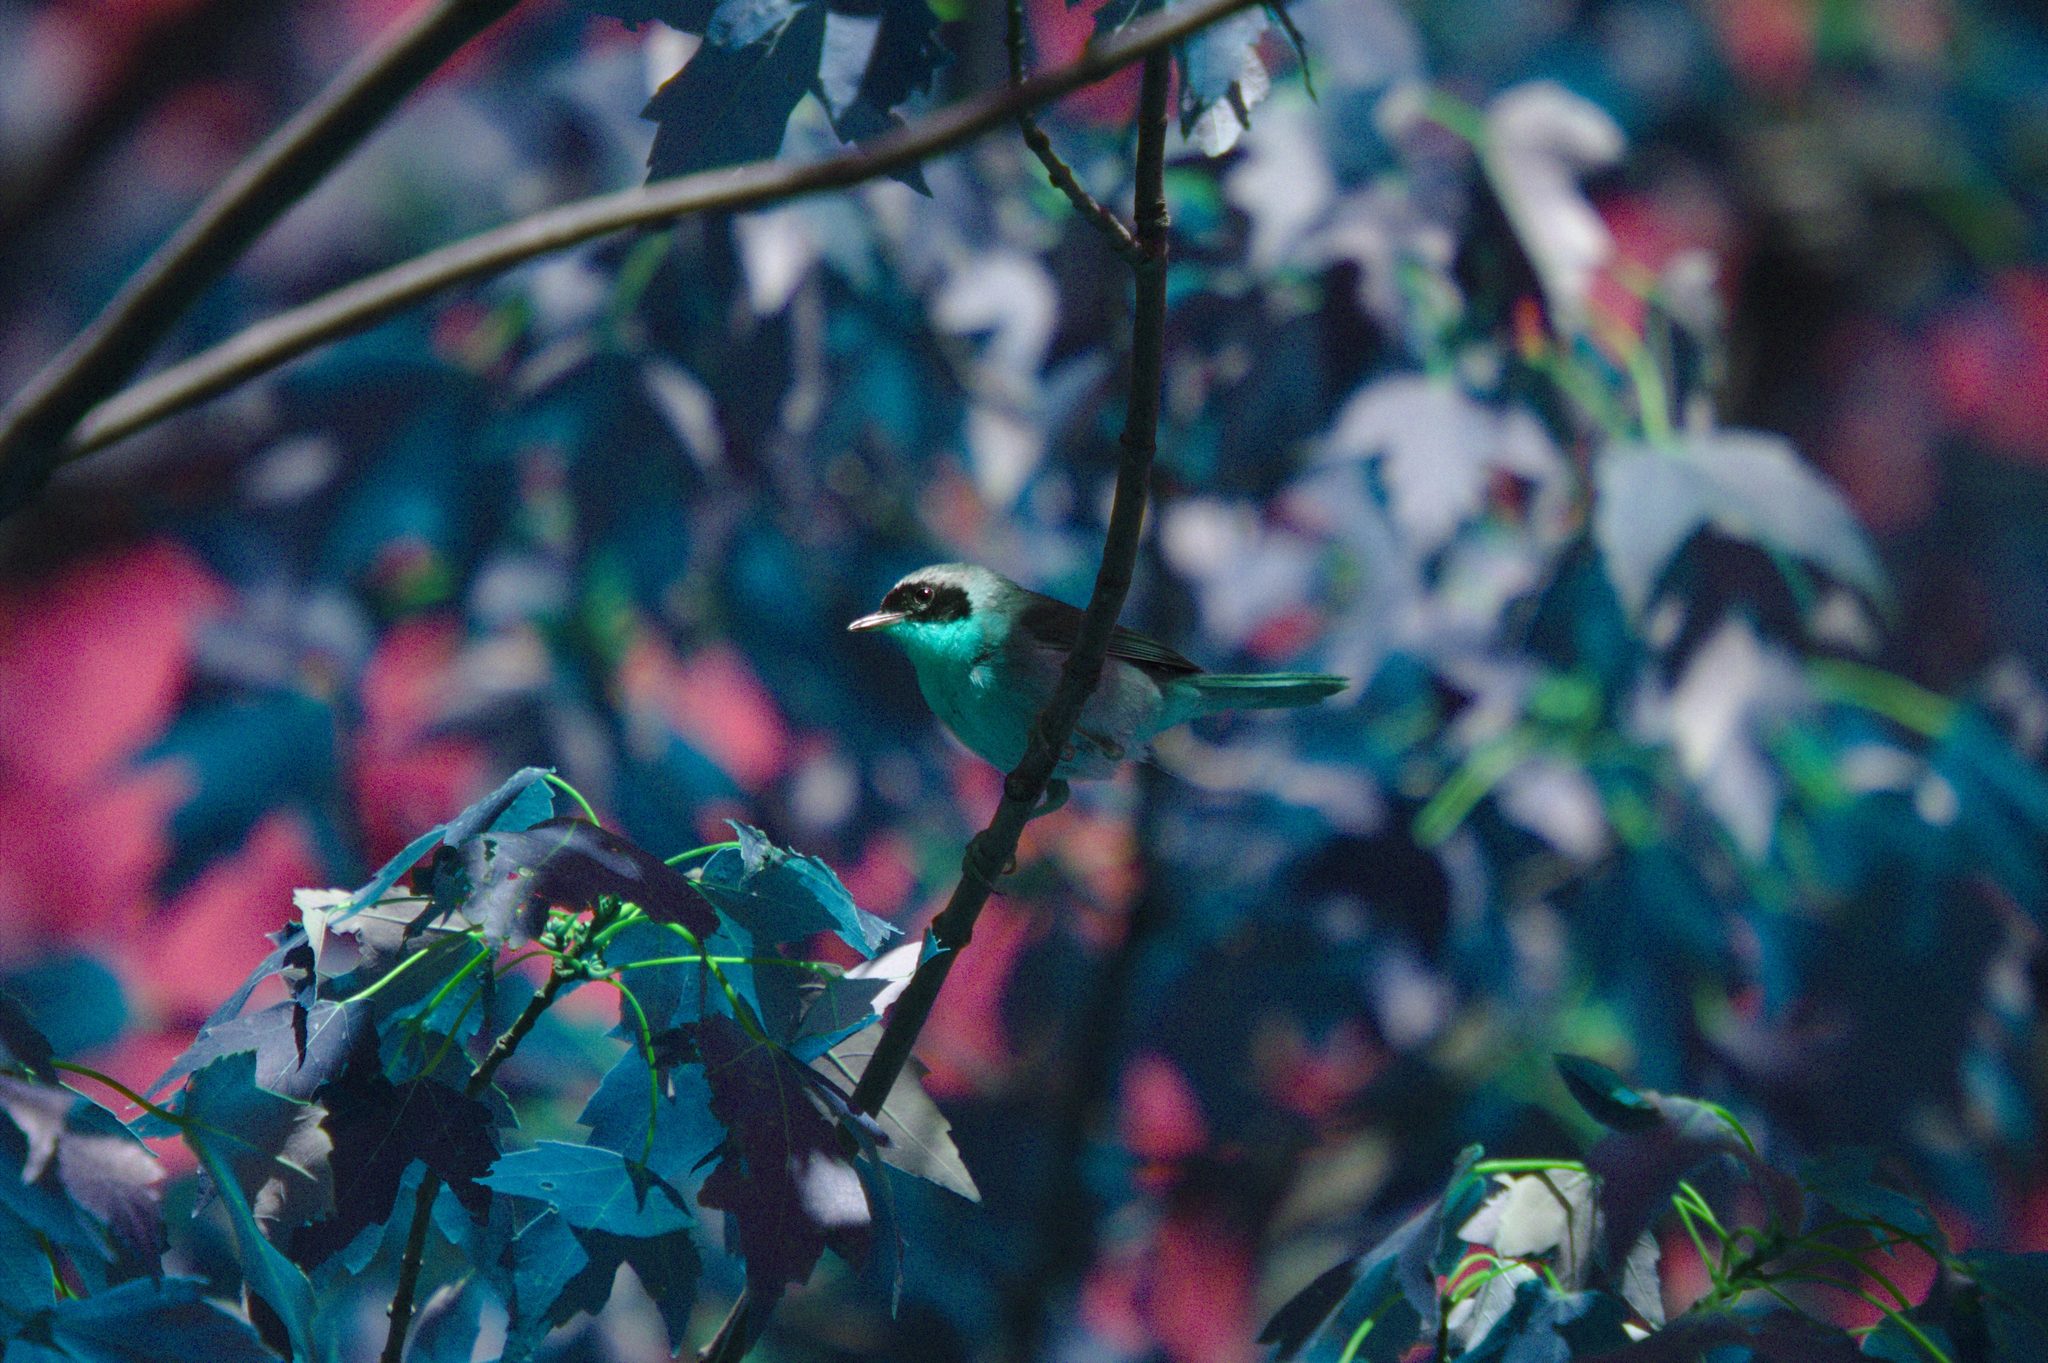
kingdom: Animalia
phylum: Chordata
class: Aves
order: Passeriformes
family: Parulidae
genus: Geothlypis
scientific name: Geothlypis trichas
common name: Common yellowthroat
